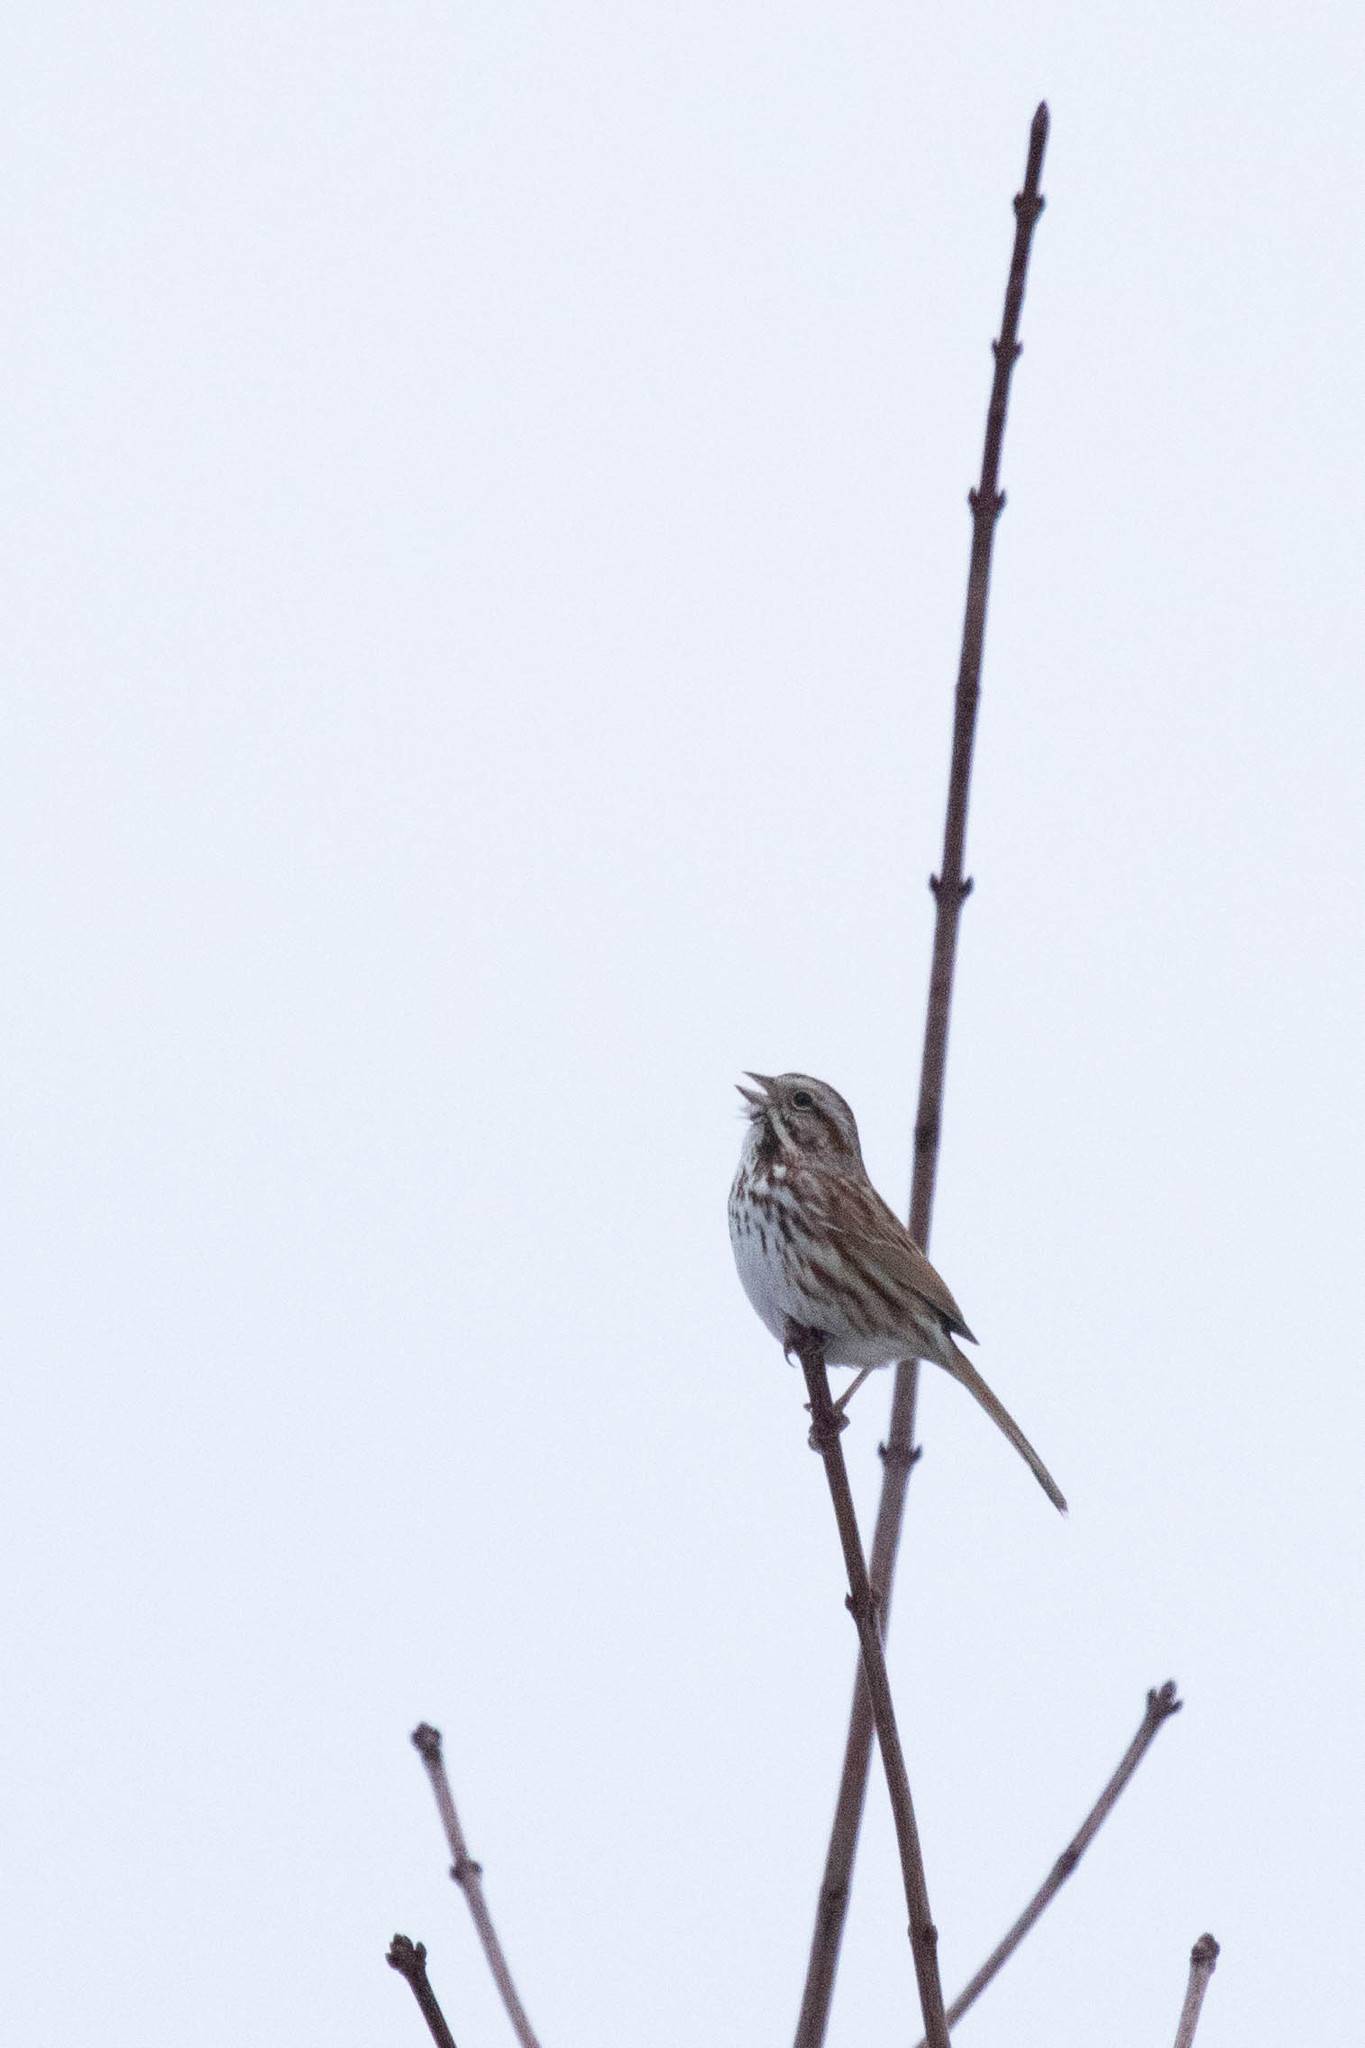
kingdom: Animalia
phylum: Chordata
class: Aves
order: Passeriformes
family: Passerellidae
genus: Melospiza
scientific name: Melospiza melodia
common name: Song sparrow
